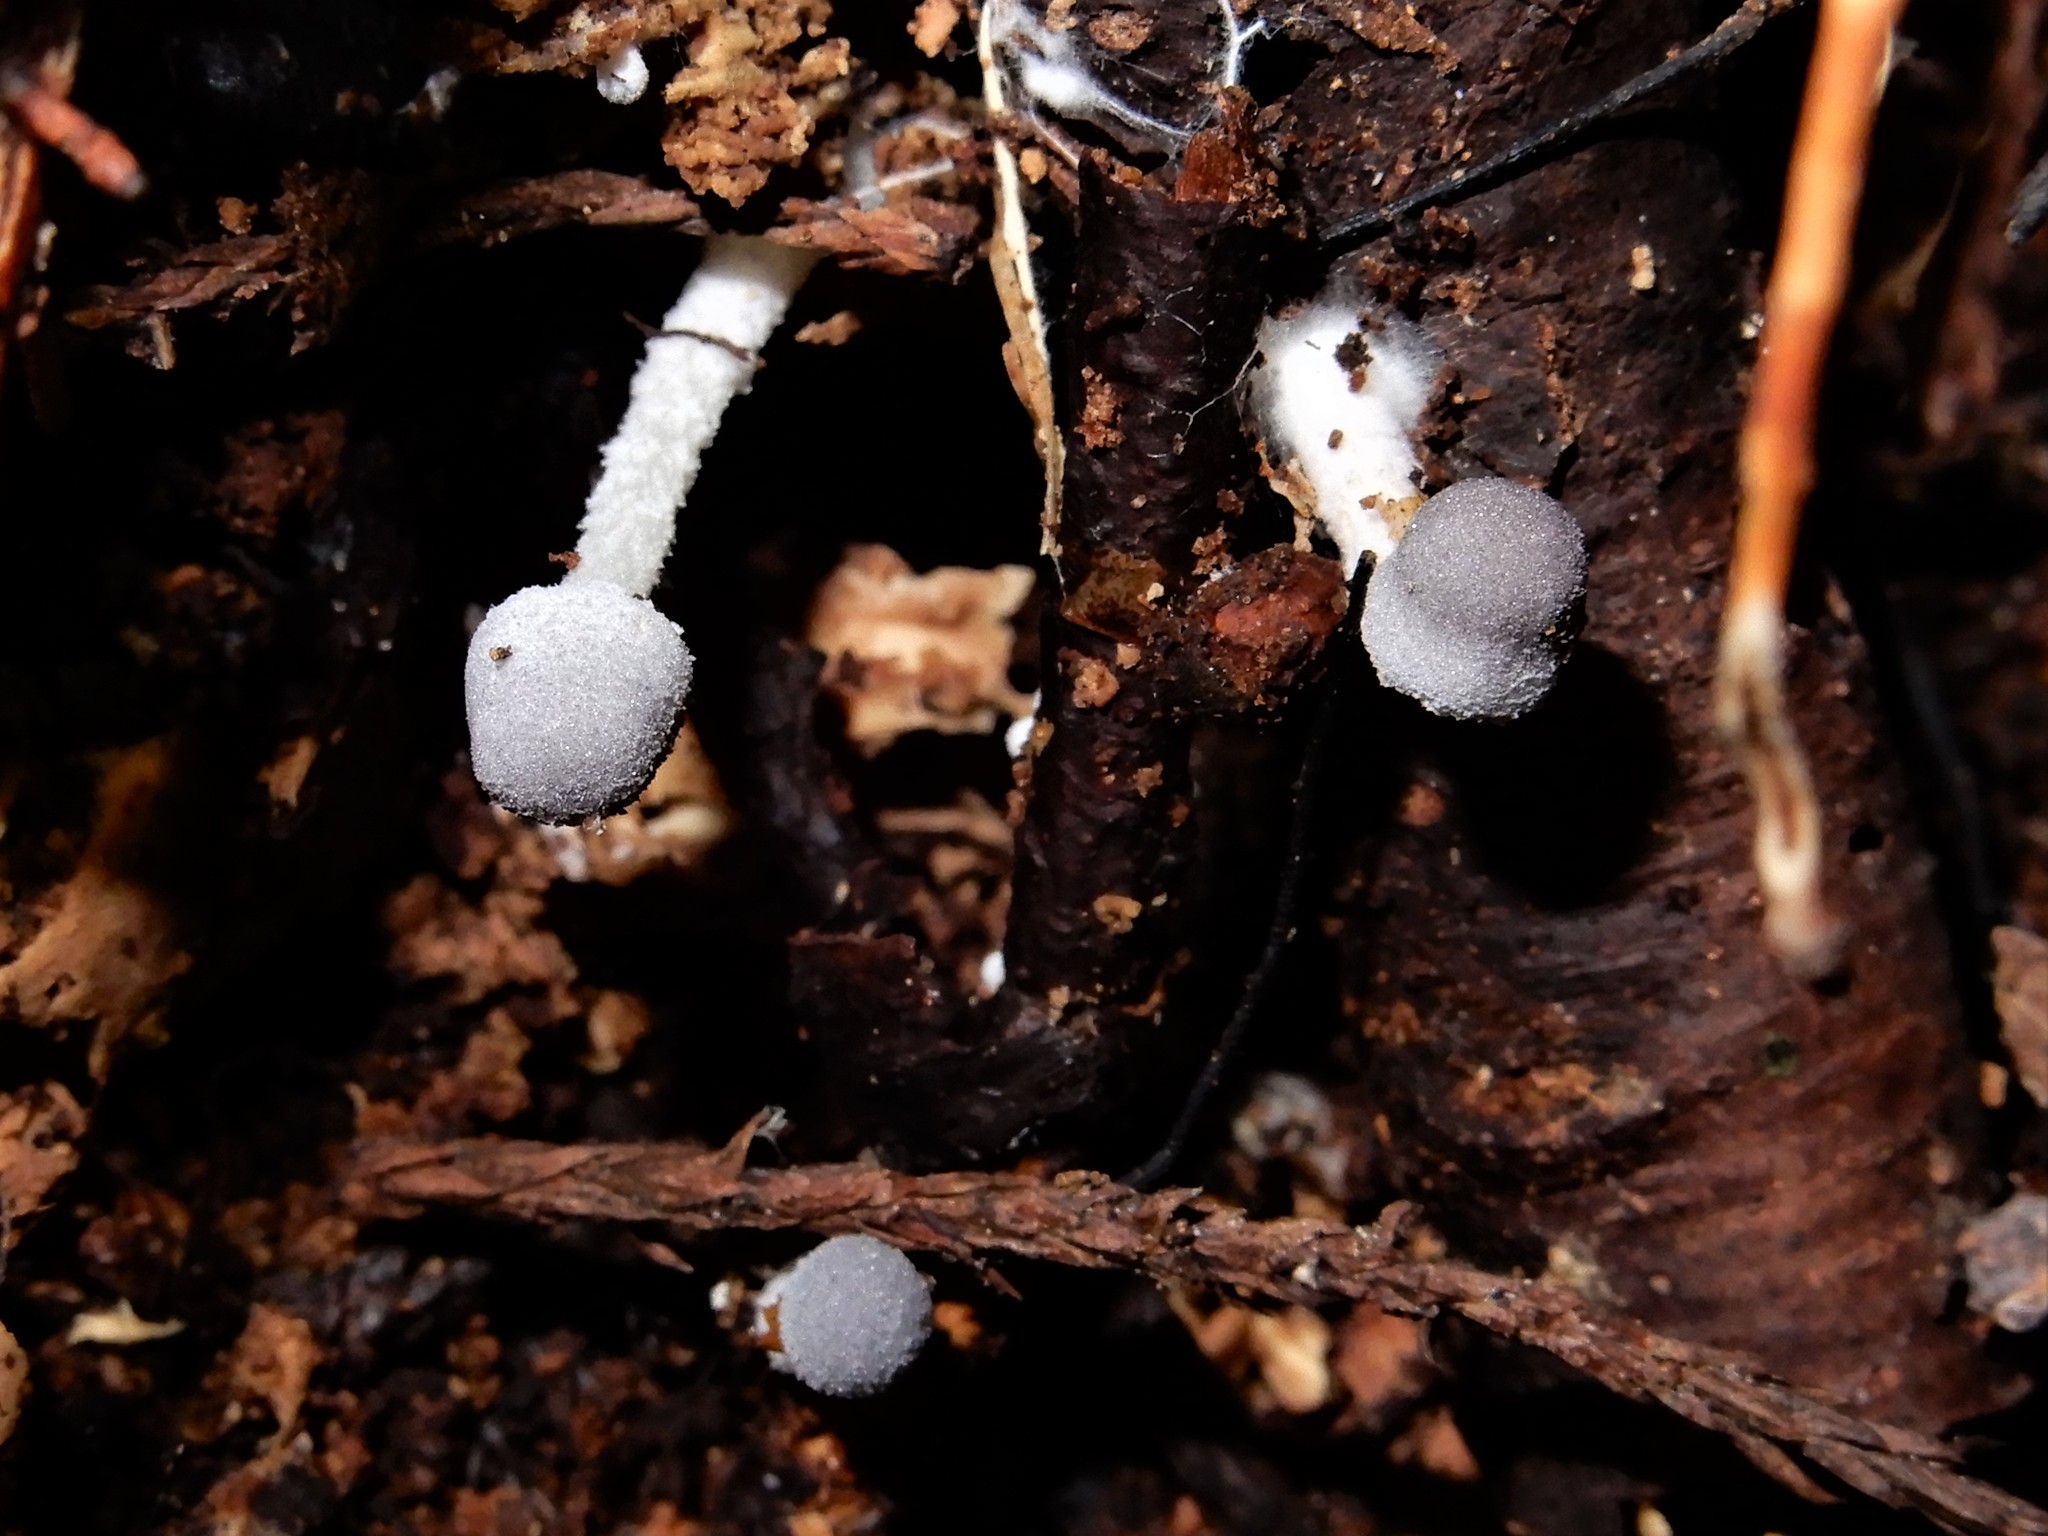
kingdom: Fungi
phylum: Basidiomycota
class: Agaricomycetes
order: Agaricales
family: Agaricaceae
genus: Leucoagaricus
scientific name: Leucoagaricus
